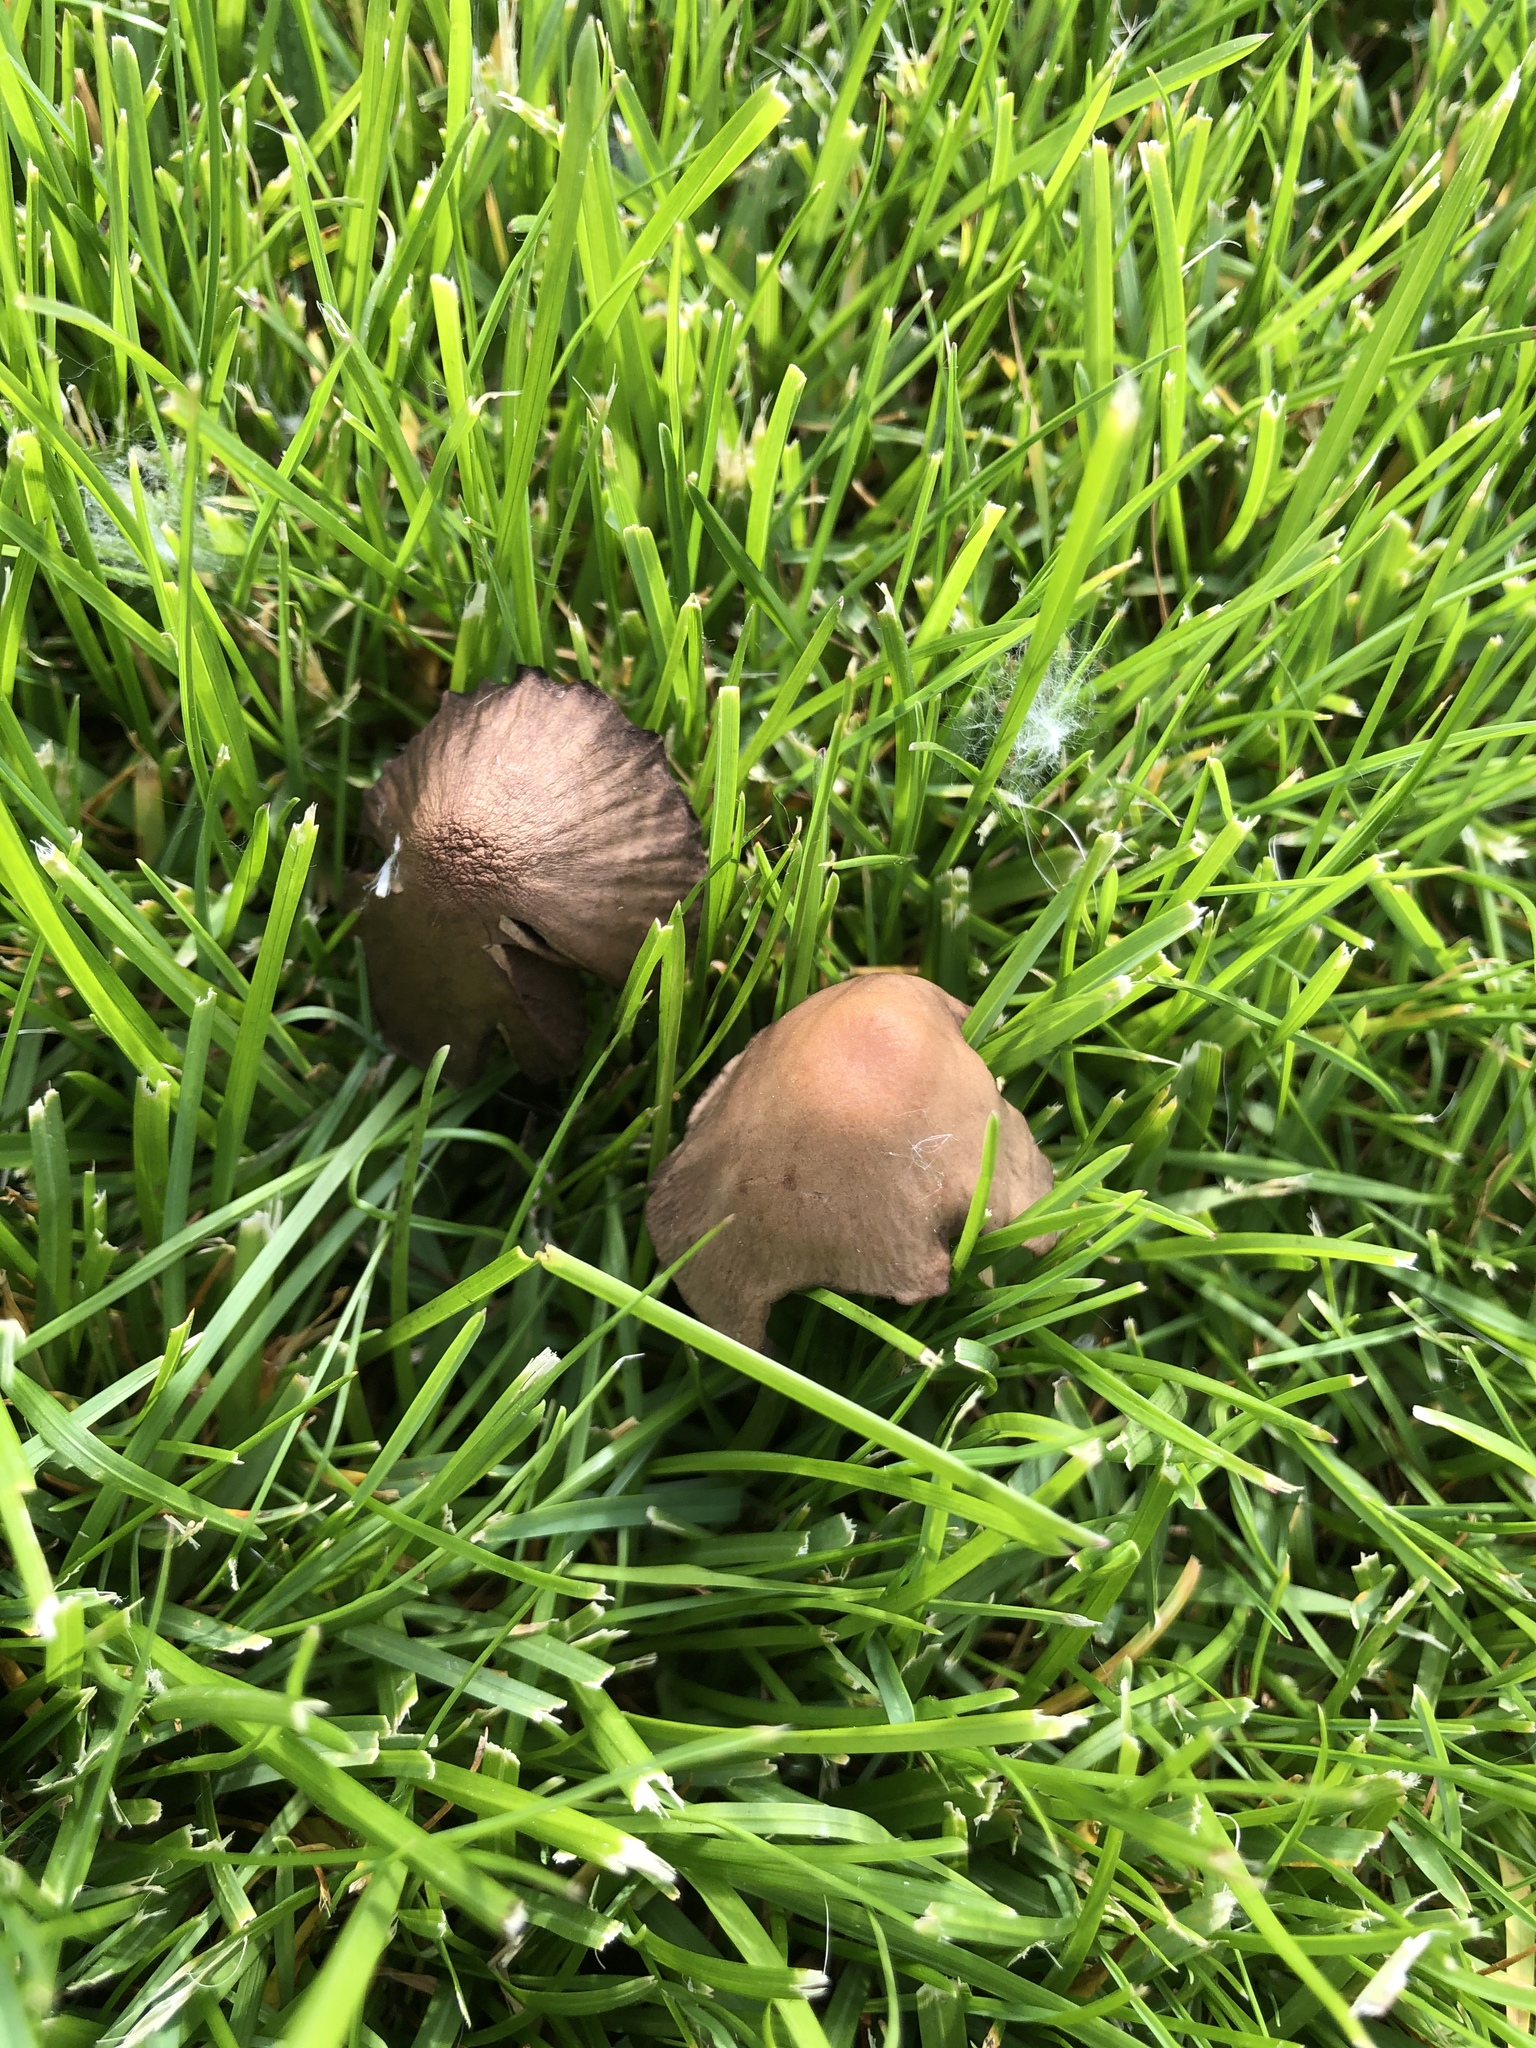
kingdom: Fungi
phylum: Basidiomycota
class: Agaricomycetes
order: Agaricales
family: Bolbitiaceae
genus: Panaeolina
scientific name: Panaeolina foenisecii
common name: Brown hay cap
